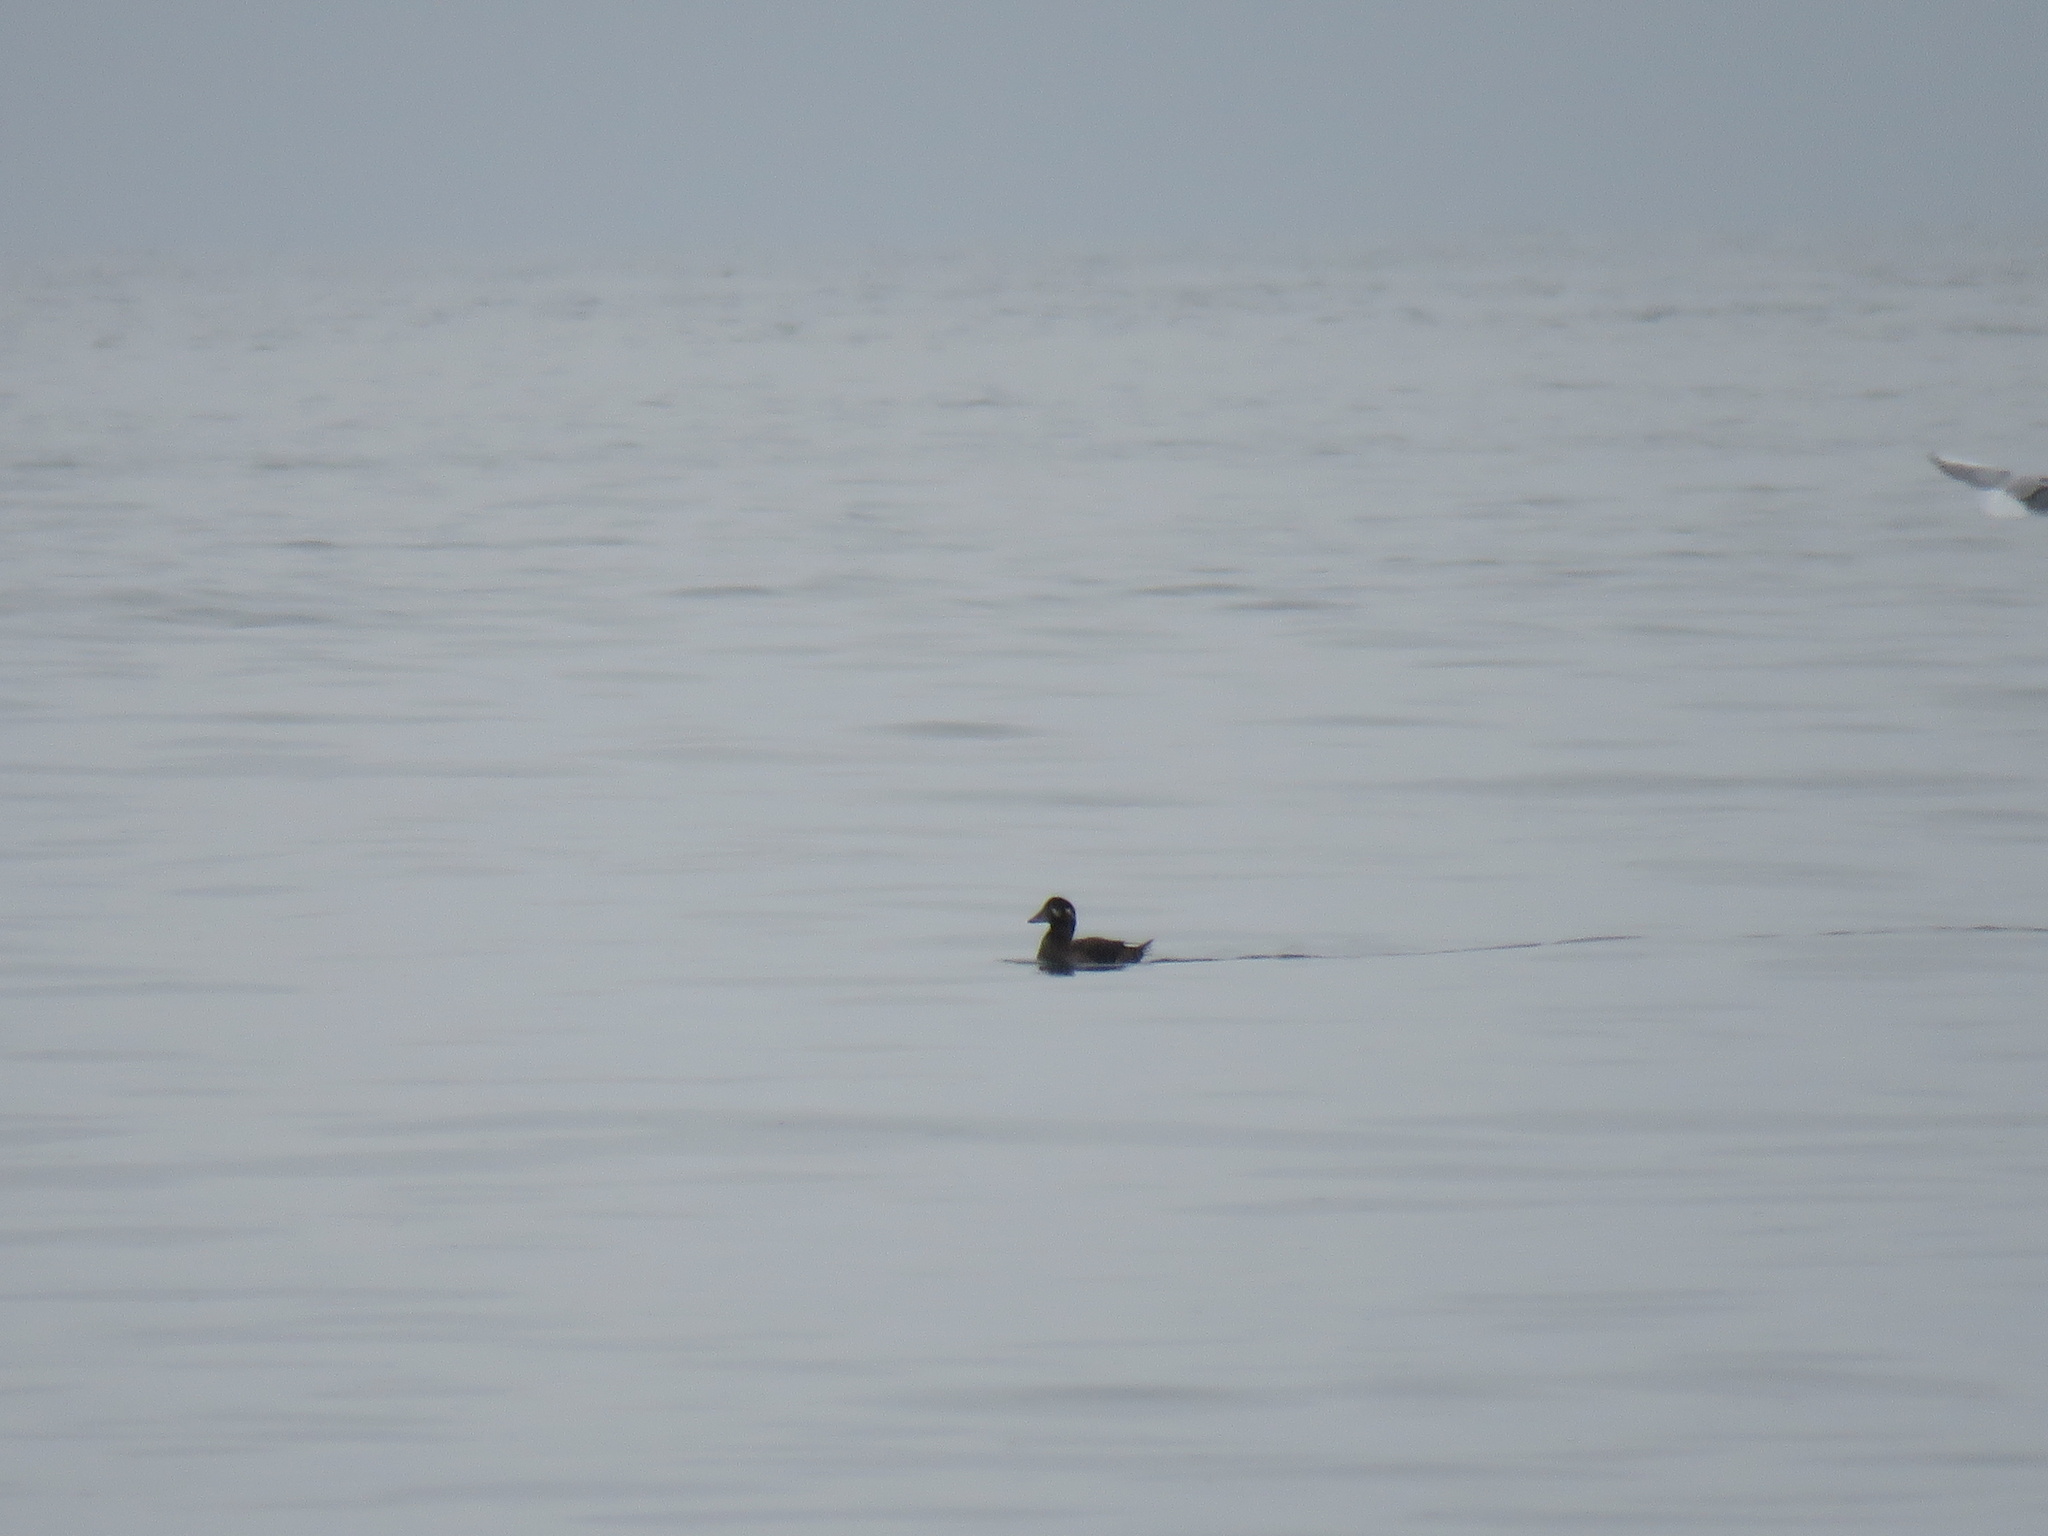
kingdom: Animalia
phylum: Chordata
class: Aves
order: Anseriformes
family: Anatidae
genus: Melanitta
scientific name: Melanitta perspicillata
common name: Surf scoter
